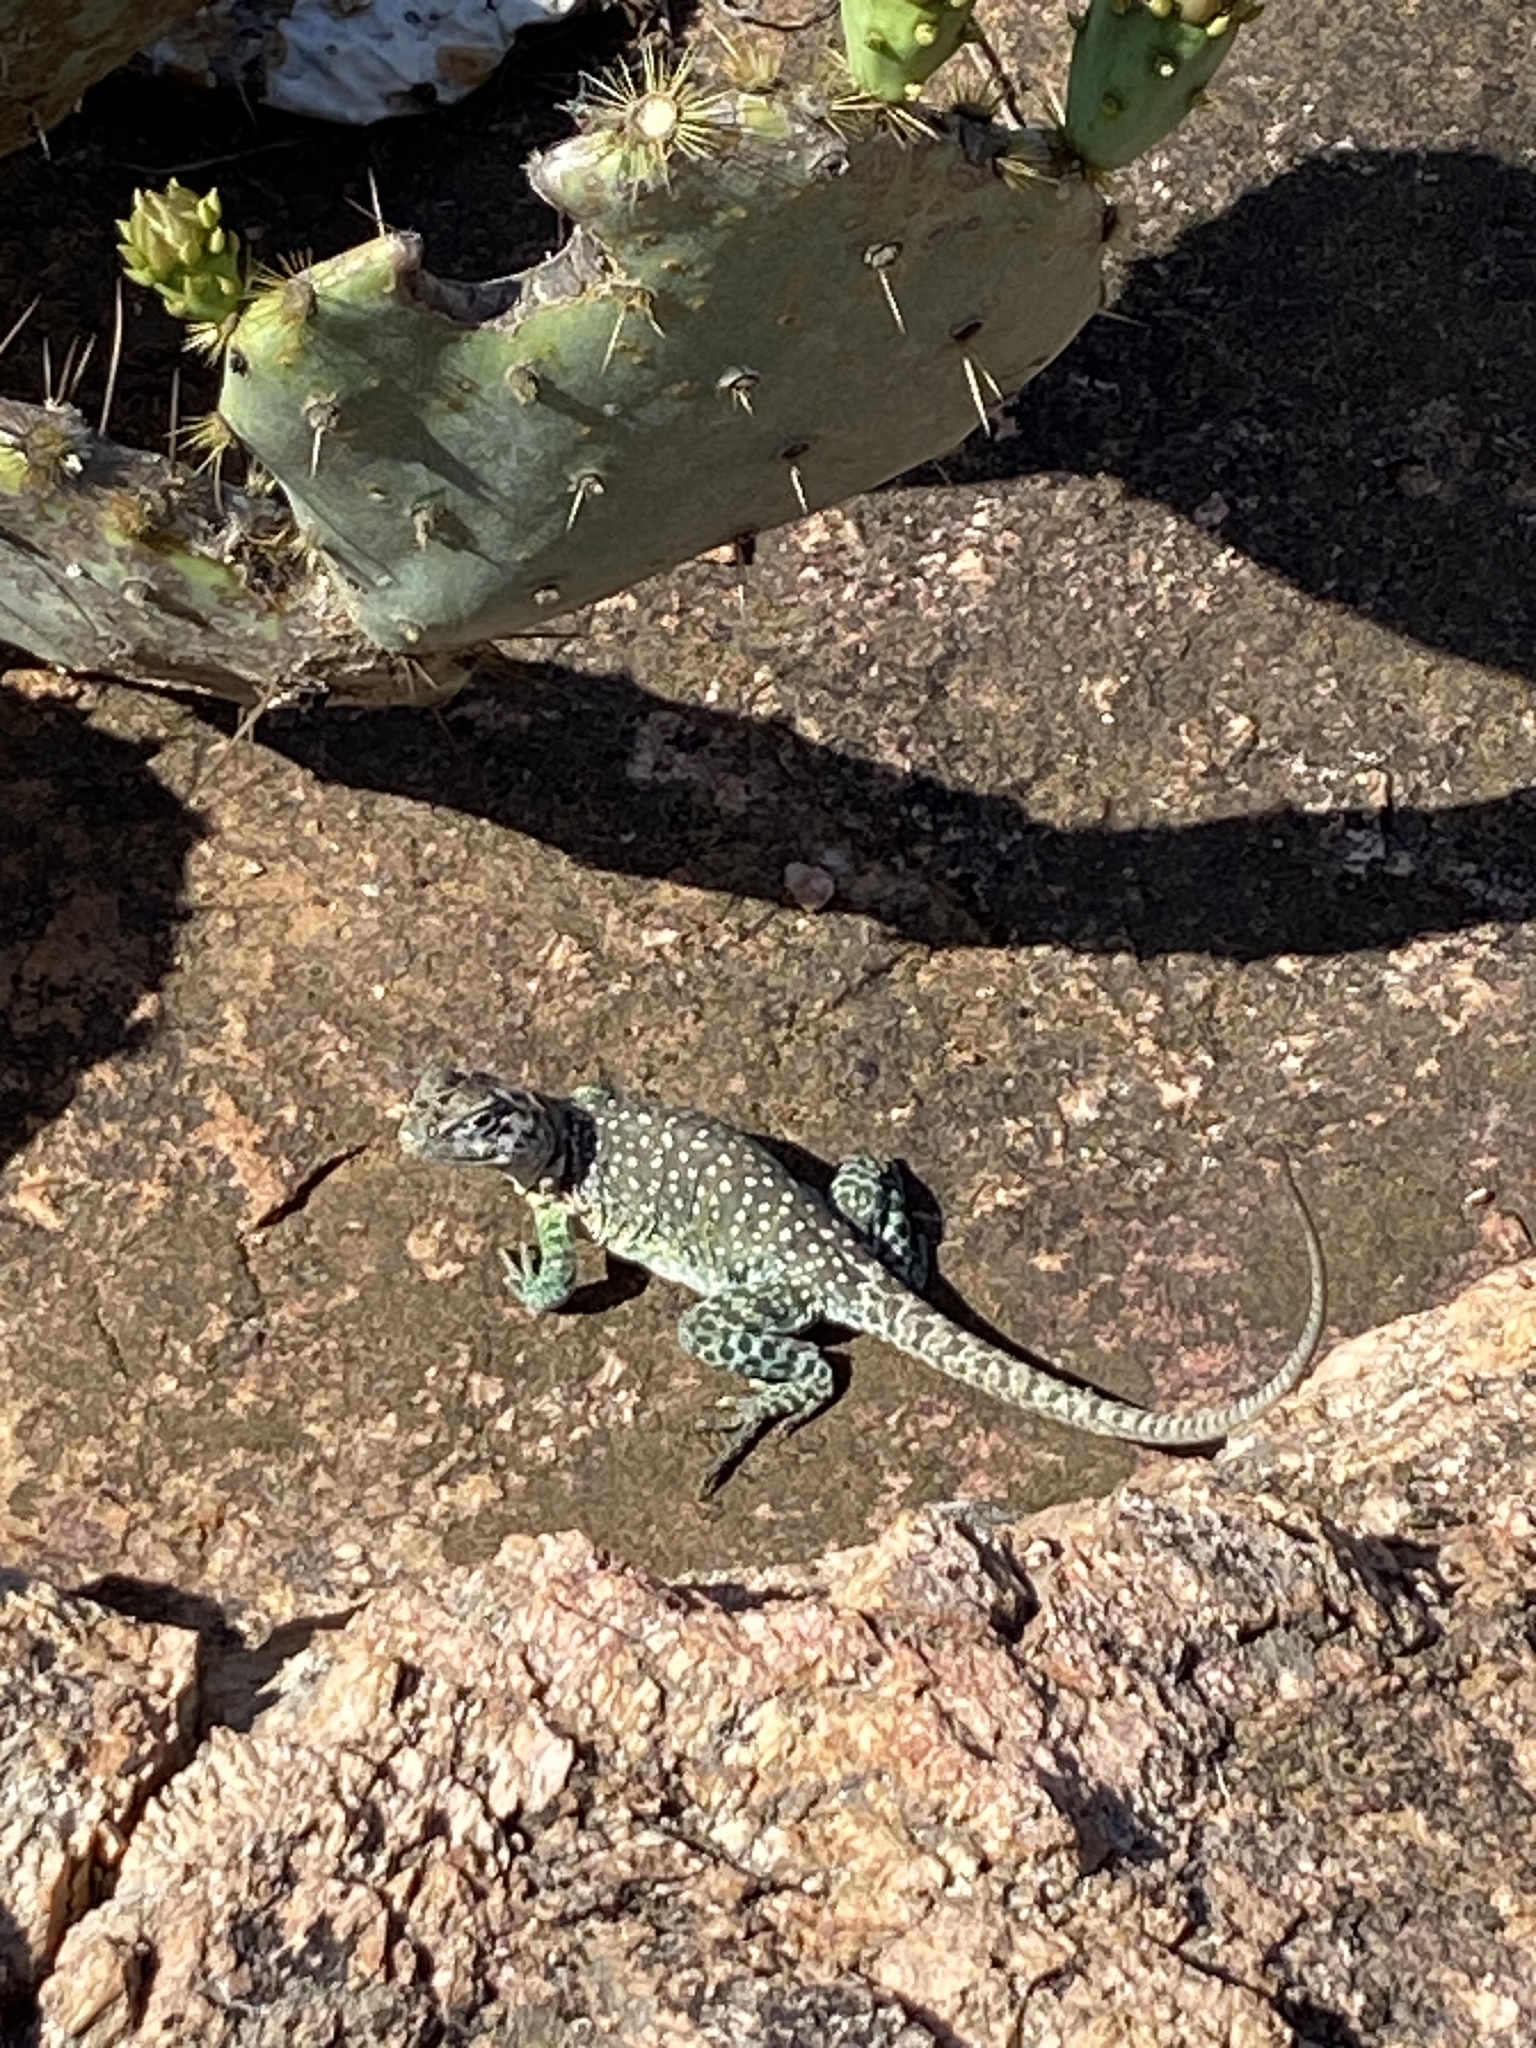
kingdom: Animalia
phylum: Chordata
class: Squamata
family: Crotaphytidae
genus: Crotaphytus
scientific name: Crotaphytus collaris
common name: Collared lizard
